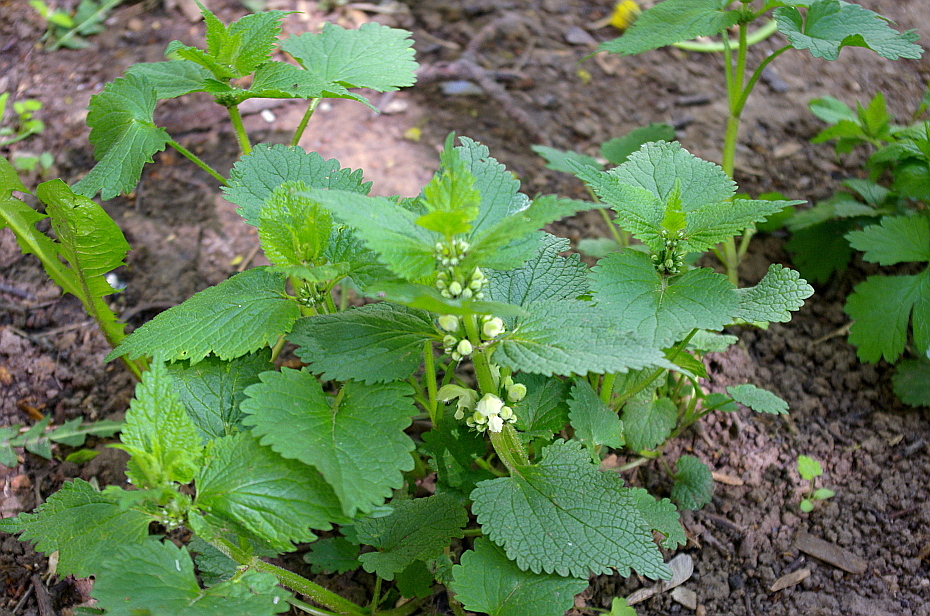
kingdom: Plantae
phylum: Tracheophyta
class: Magnoliopsida
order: Lamiales
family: Lamiaceae
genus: Lamium
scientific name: Lamium album
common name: White dead-nettle
